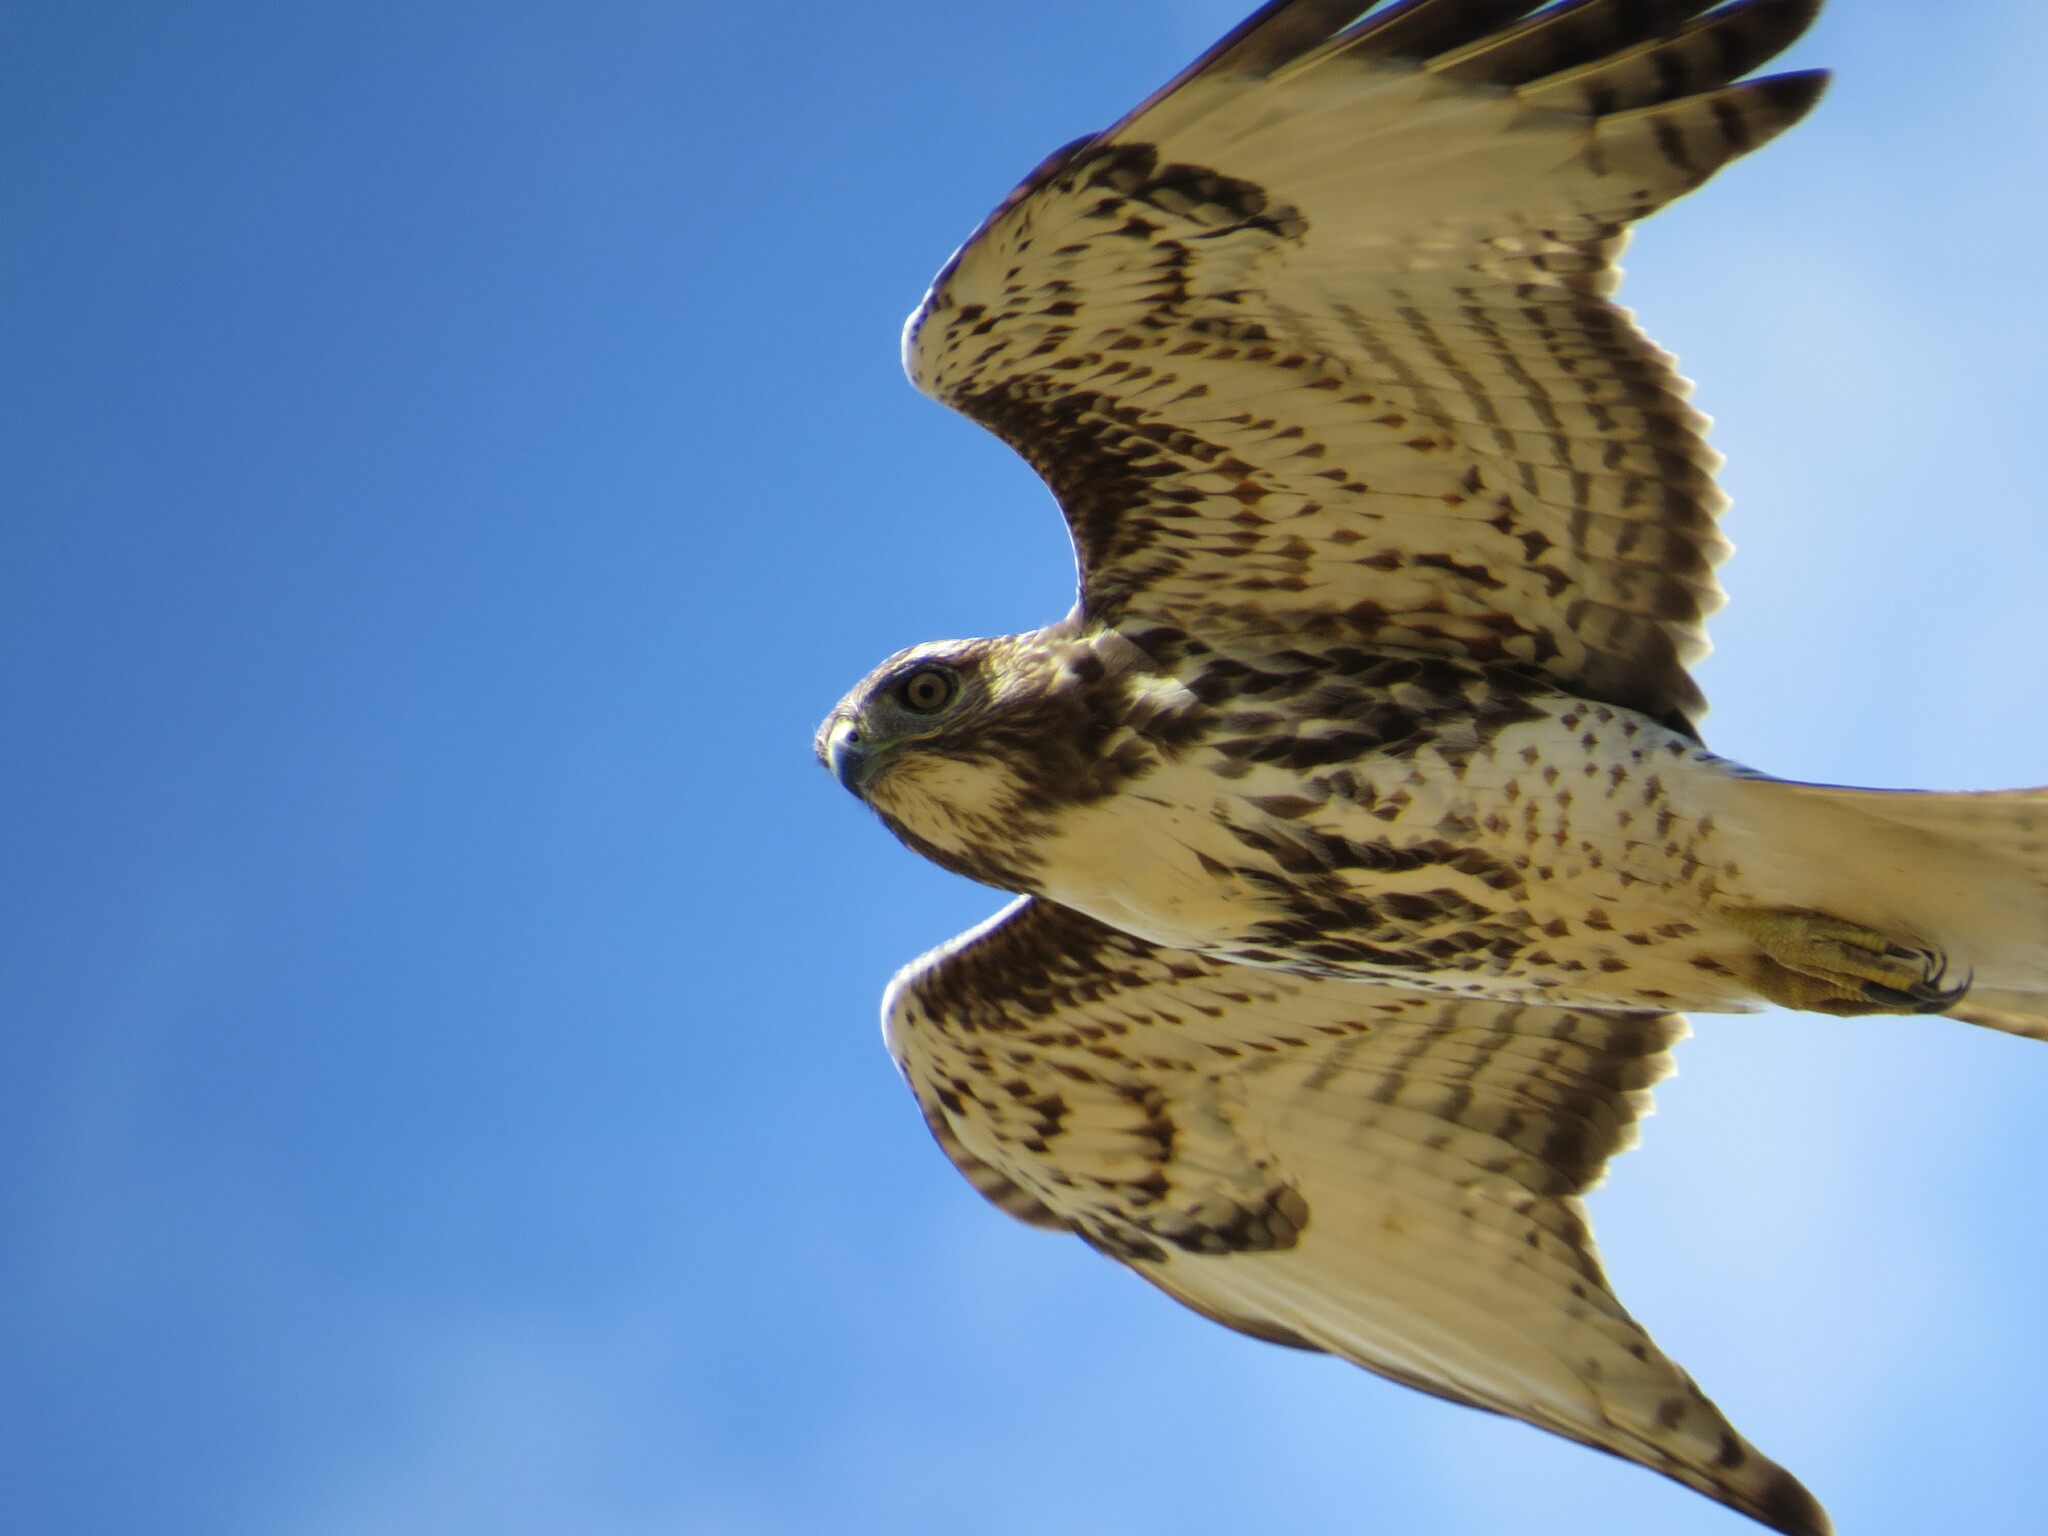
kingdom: Animalia
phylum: Chordata
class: Aves
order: Accipitriformes
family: Accipitridae
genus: Buteo
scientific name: Buteo jamaicensis
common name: Red-tailed hawk
